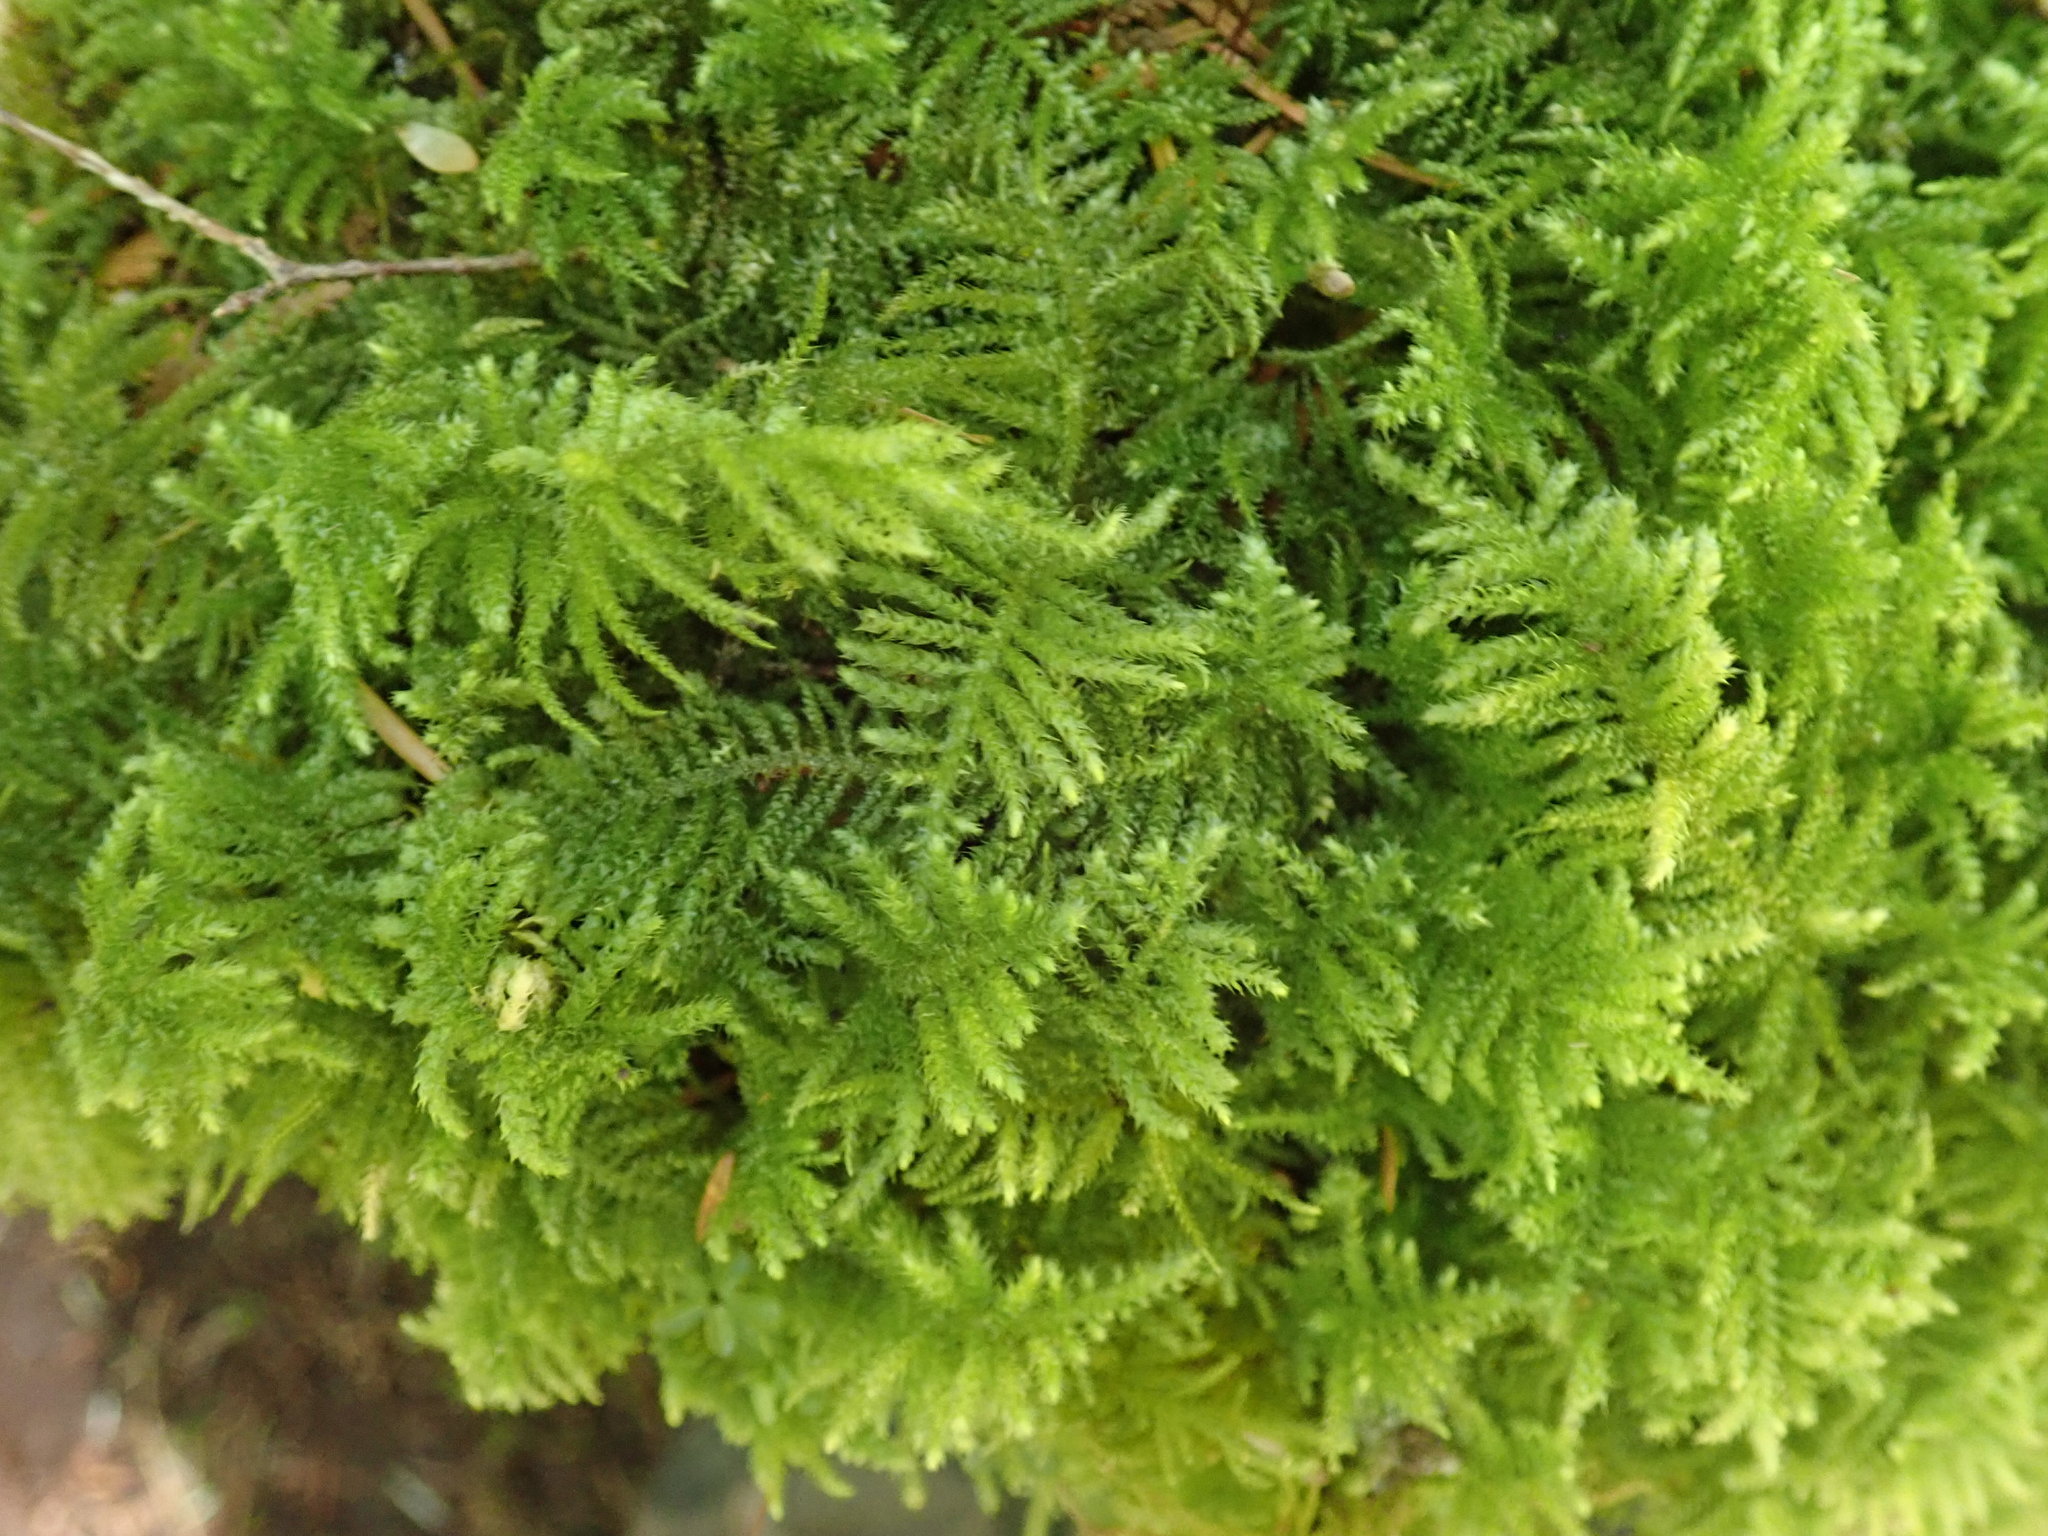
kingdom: Plantae
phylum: Bryophyta
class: Bryopsida
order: Hypnales
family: Brachytheciaceae
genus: Kindbergia
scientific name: Kindbergia oregana
